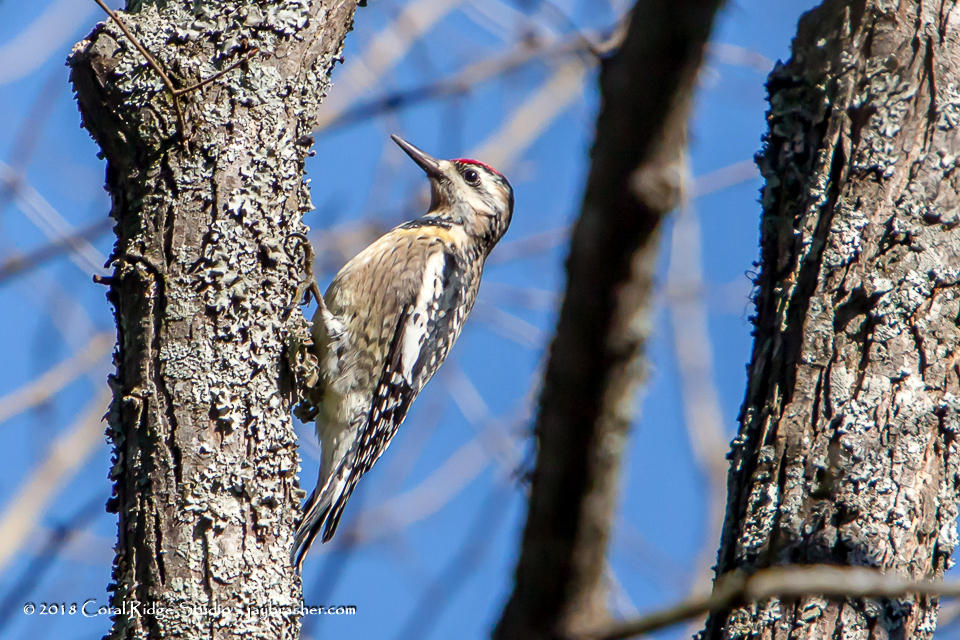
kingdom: Animalia
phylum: Chordata
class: Aves
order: Piciformes
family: Picidae
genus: Sphyrapicus
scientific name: Sphyrapicus varius
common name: Yellow-bellied sapsucker
